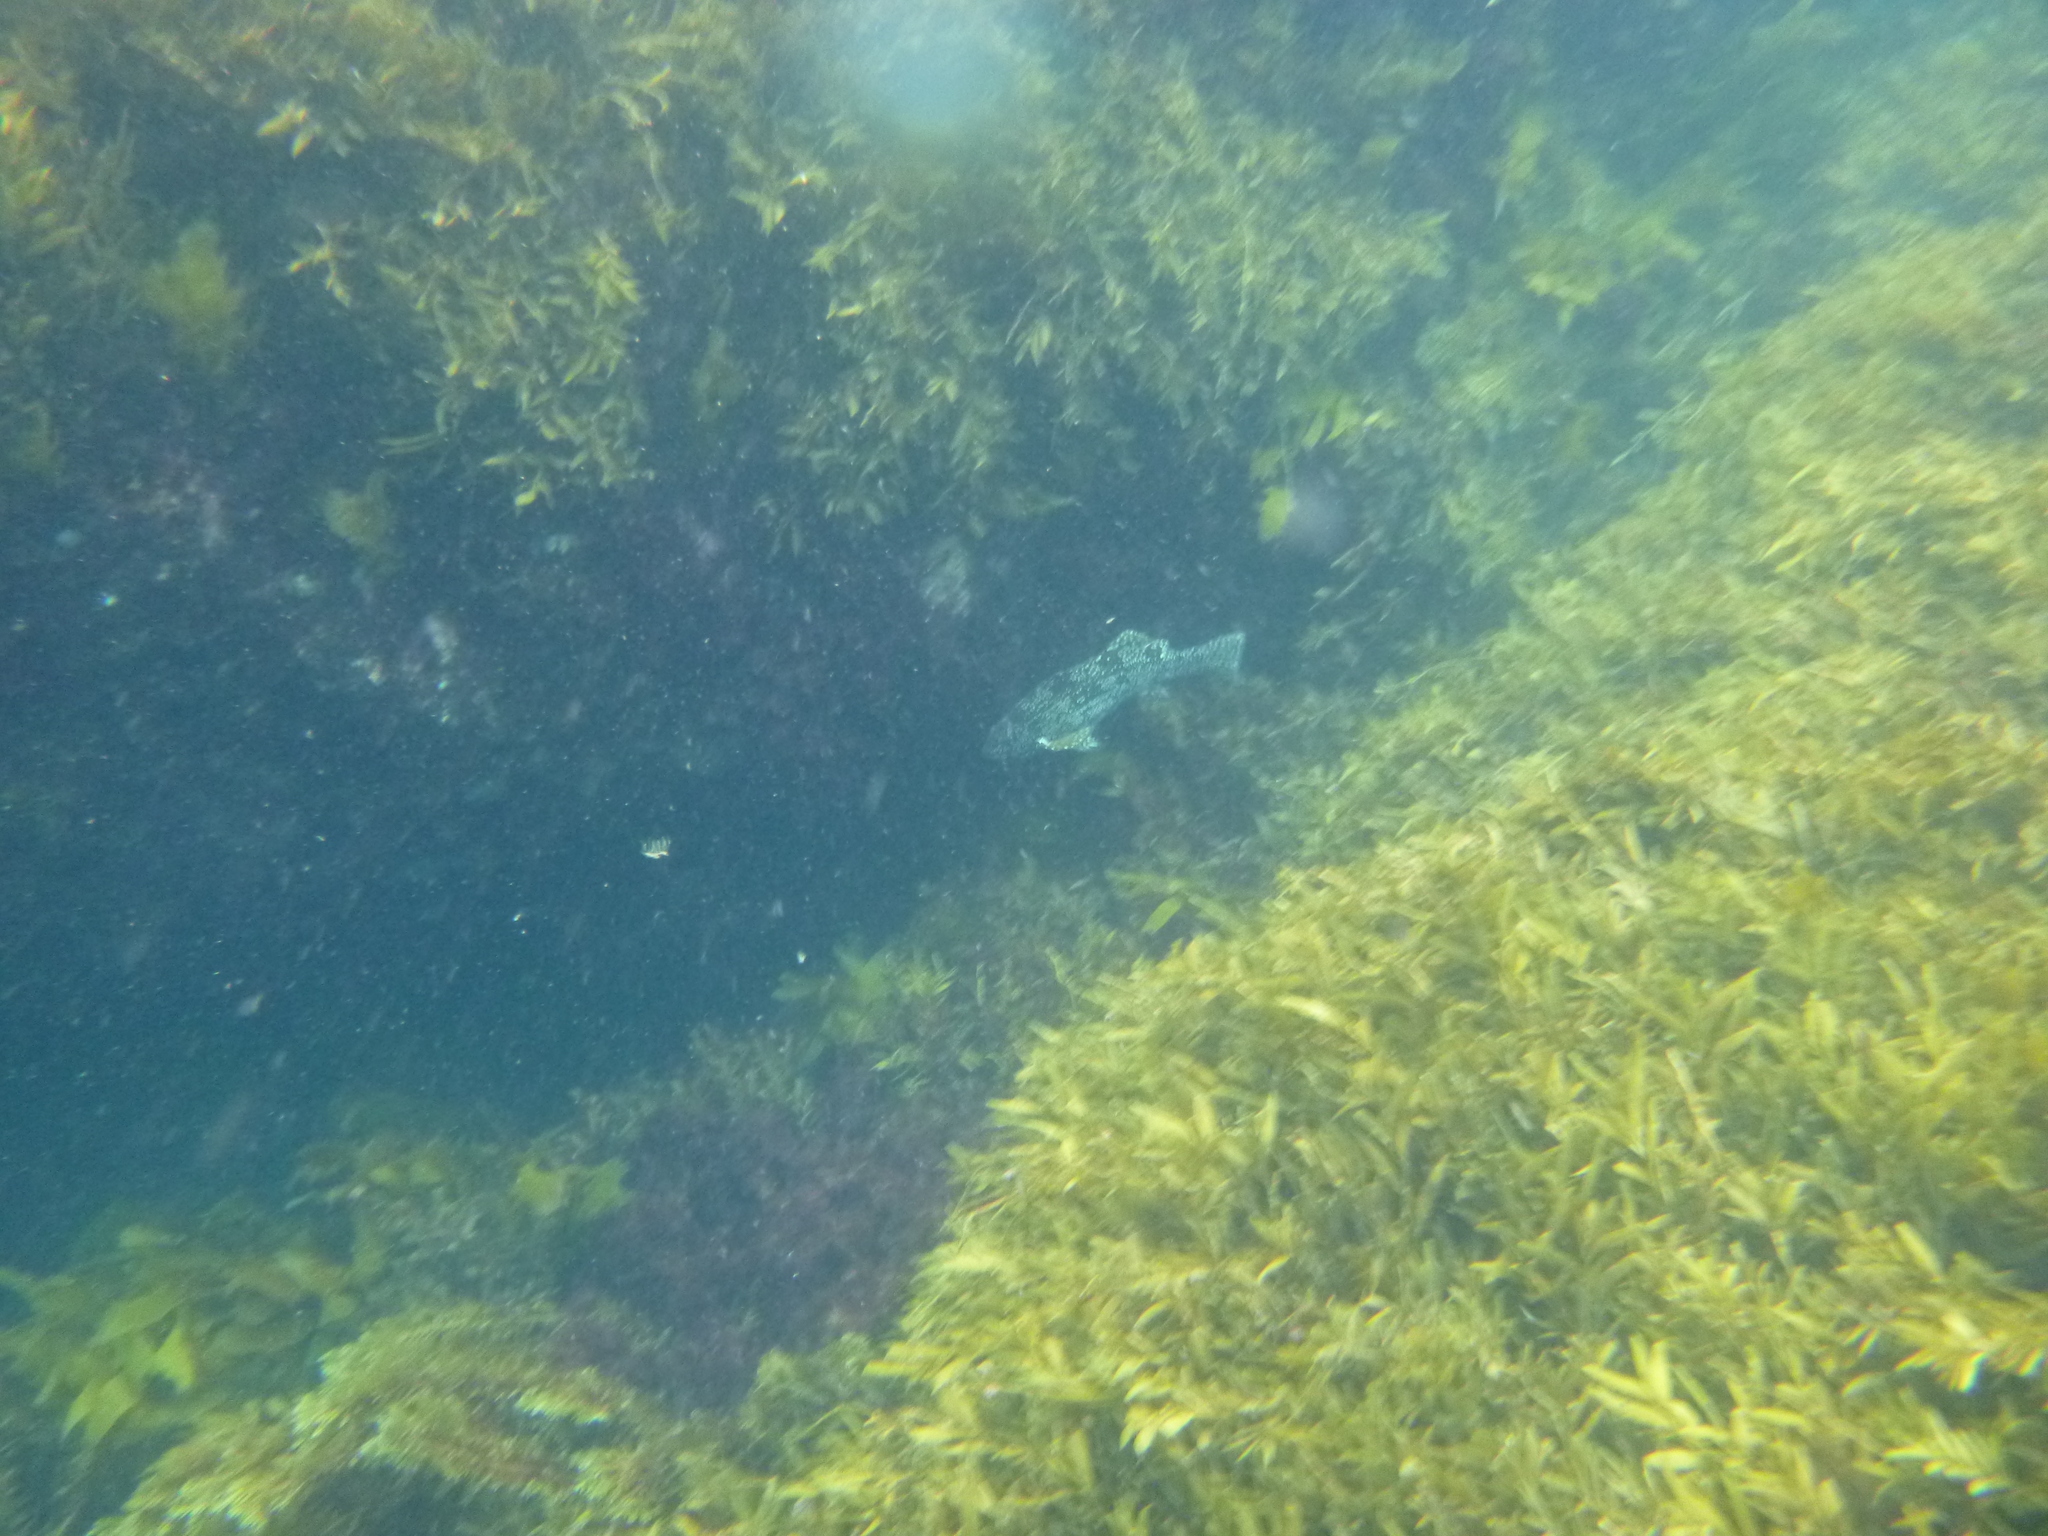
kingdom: Animalia
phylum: Chordata
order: Perciformes
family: Aplodactylidae
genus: Aplodactylus
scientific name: Aplodactylus arctidens
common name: Marblefish
